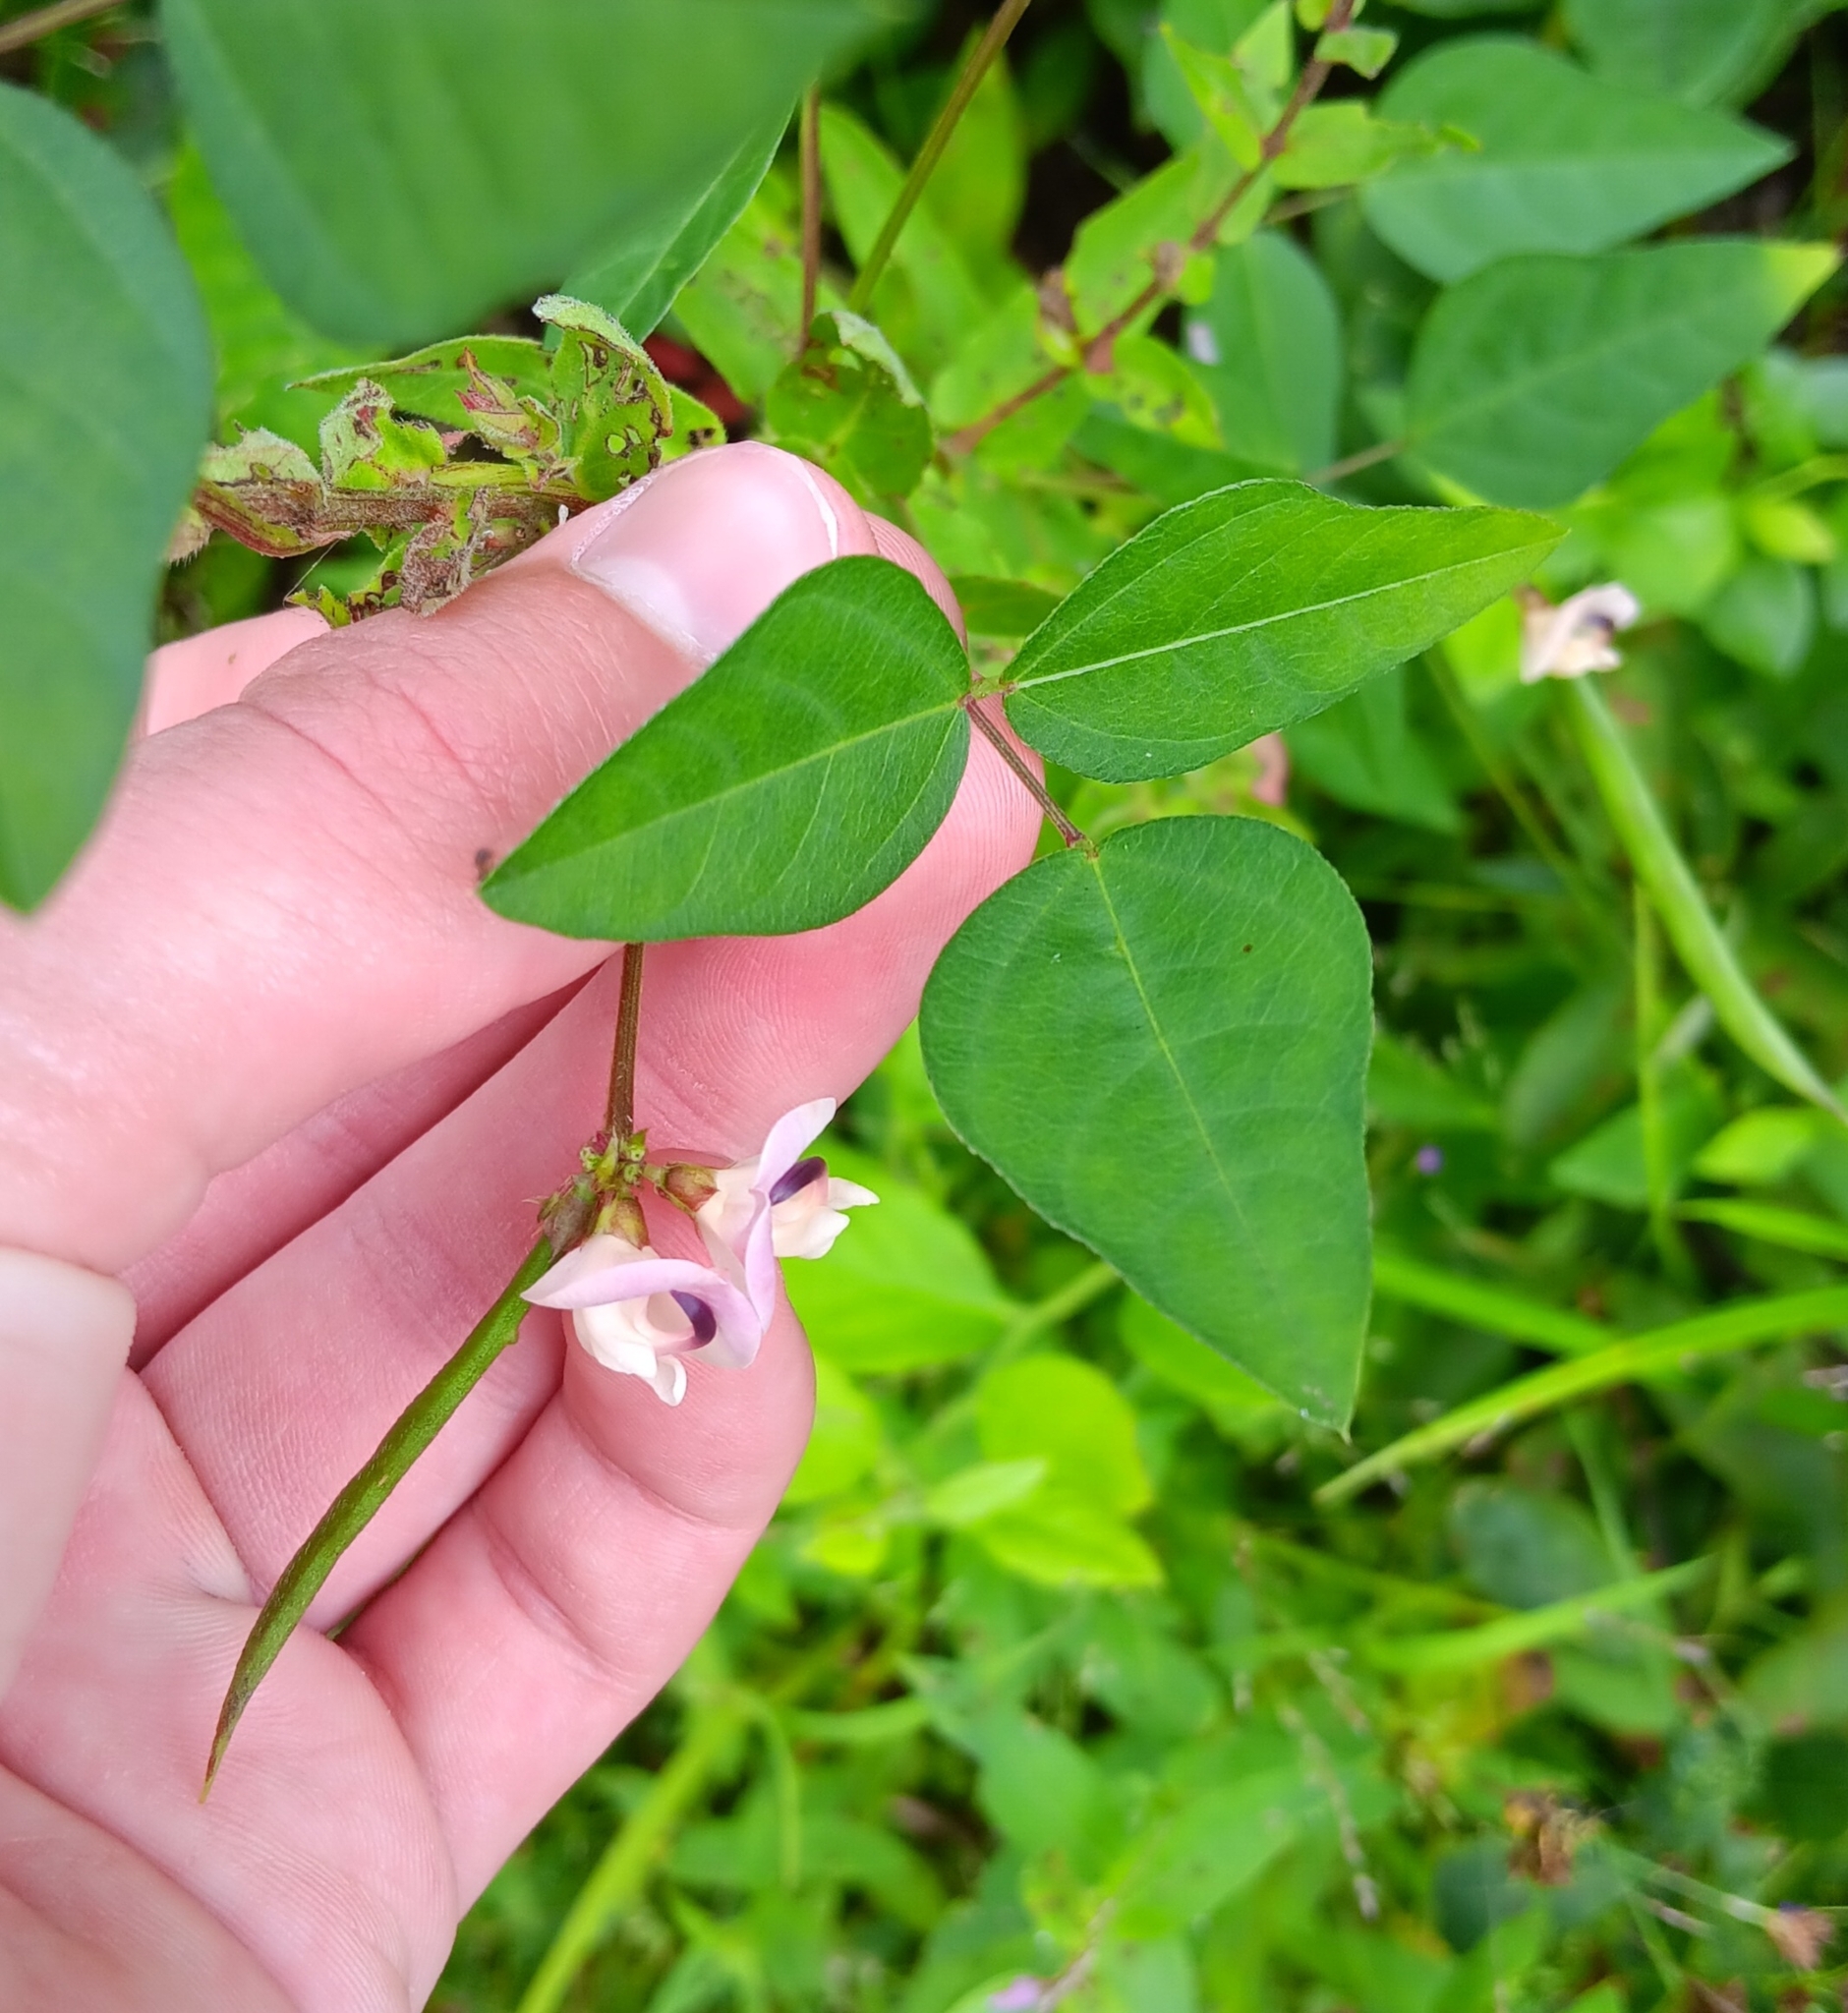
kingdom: Plantae
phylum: Tracheophyta
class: Magnoliopsida
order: Fabales
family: Fabaceae
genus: Strophostyles
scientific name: Strophostyles helvola
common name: Trailing wild bean
